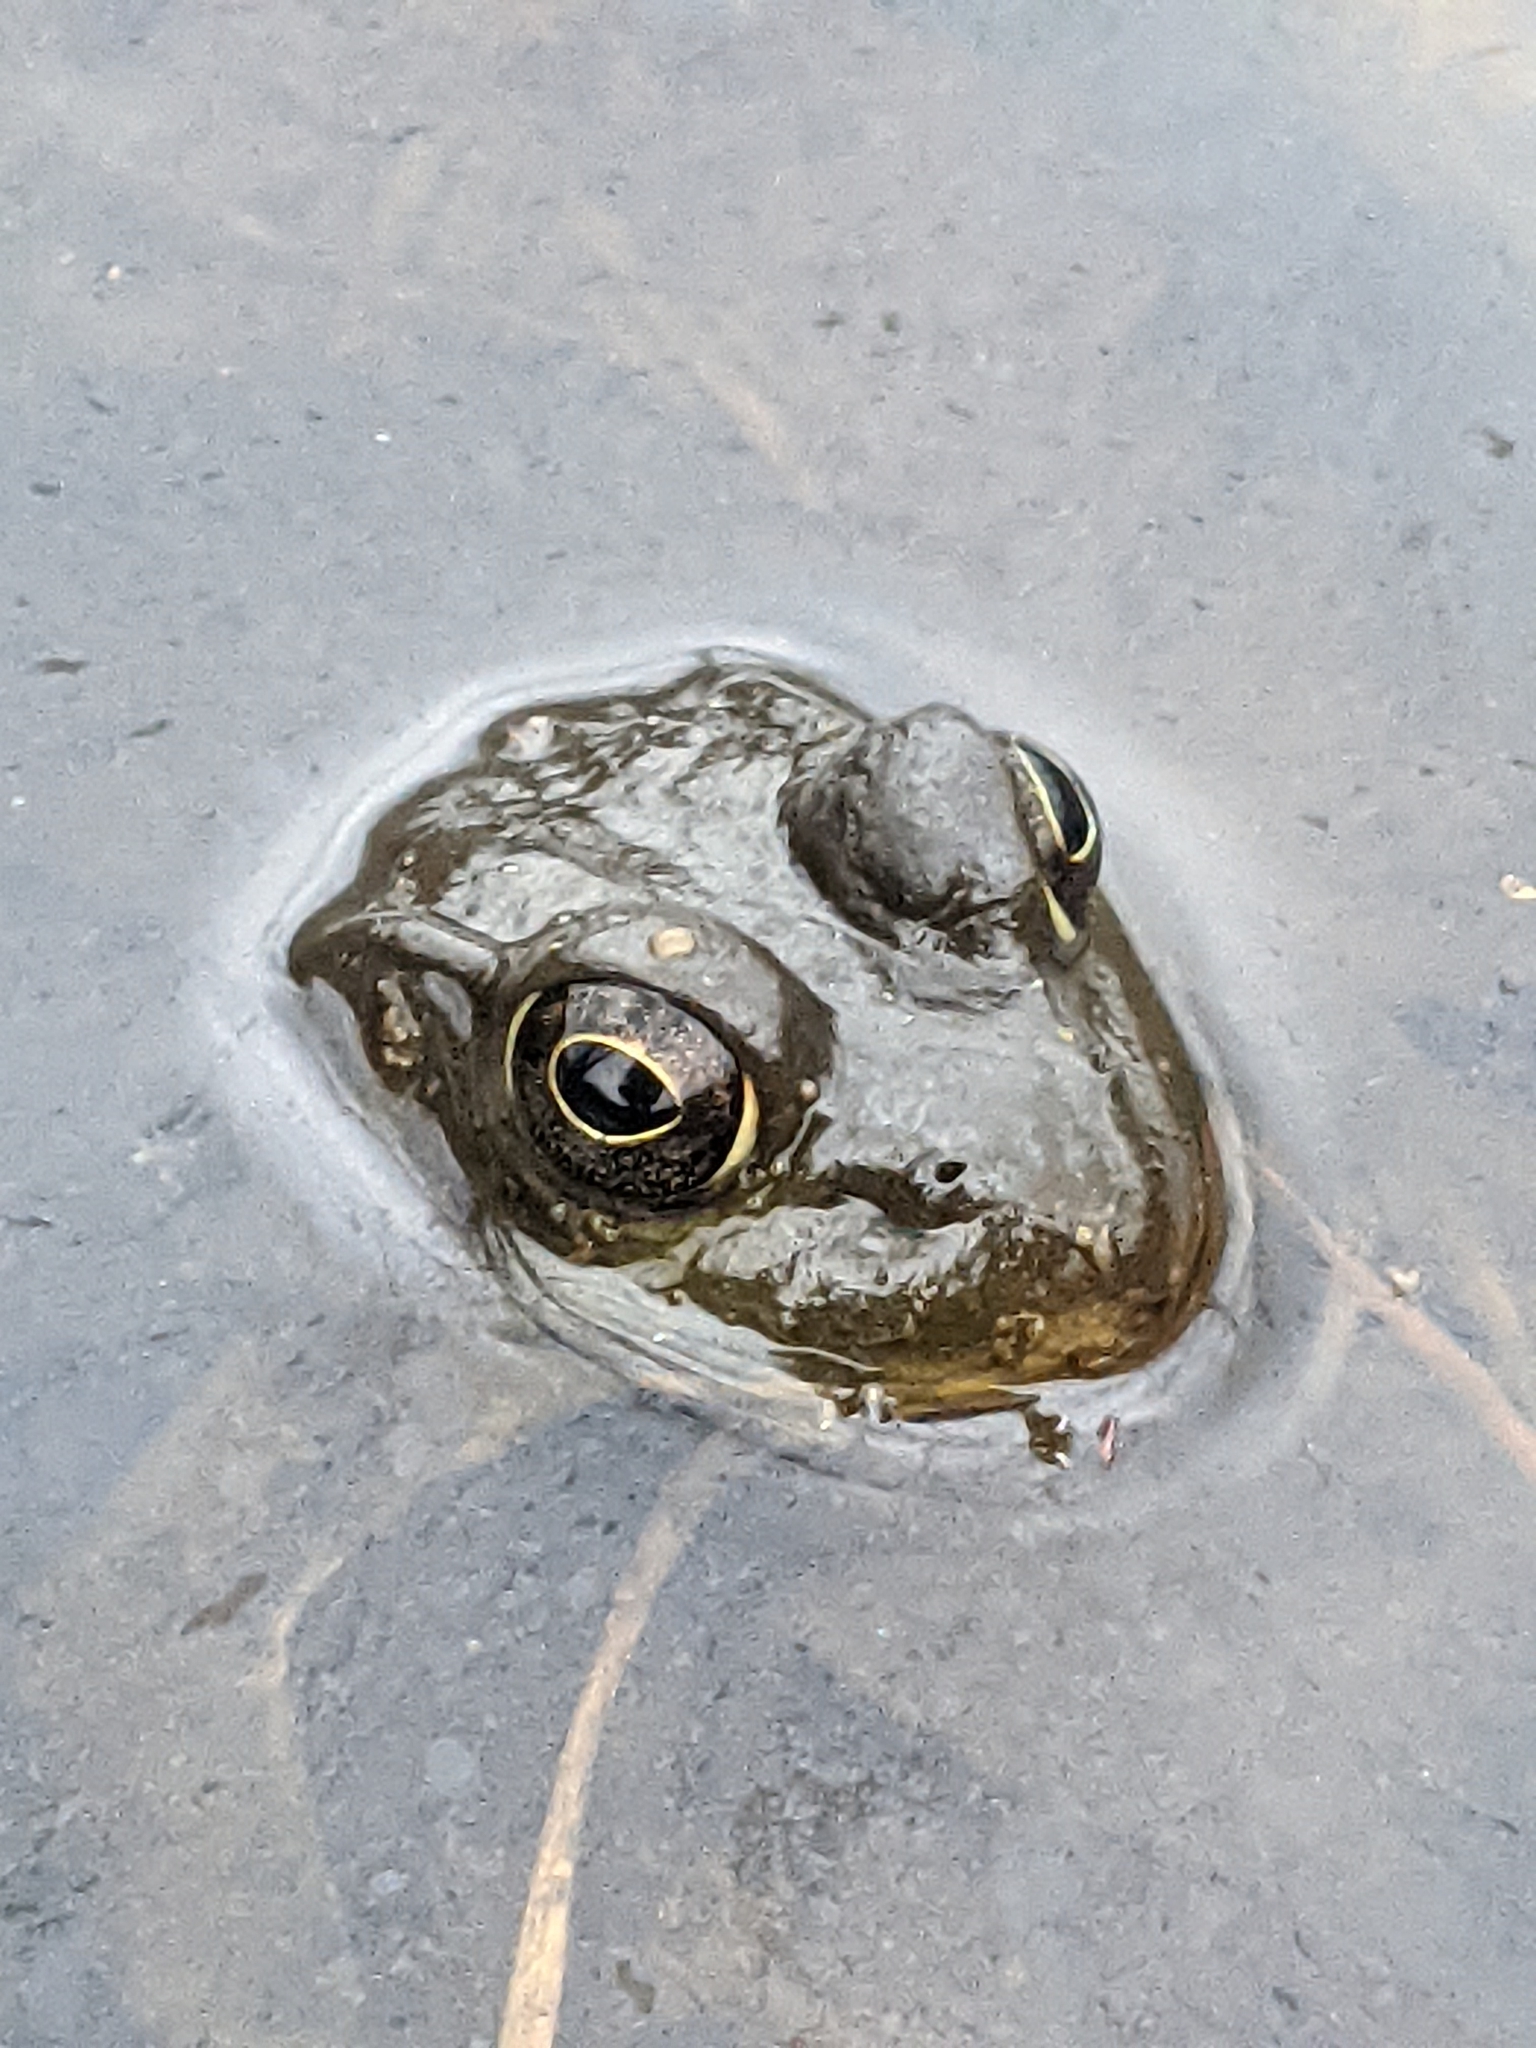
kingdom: Animalia
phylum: Chordata
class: Amphibia
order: Anura
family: Ranidae
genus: Lithobates
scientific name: Lithobates clamitans
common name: Green frog
